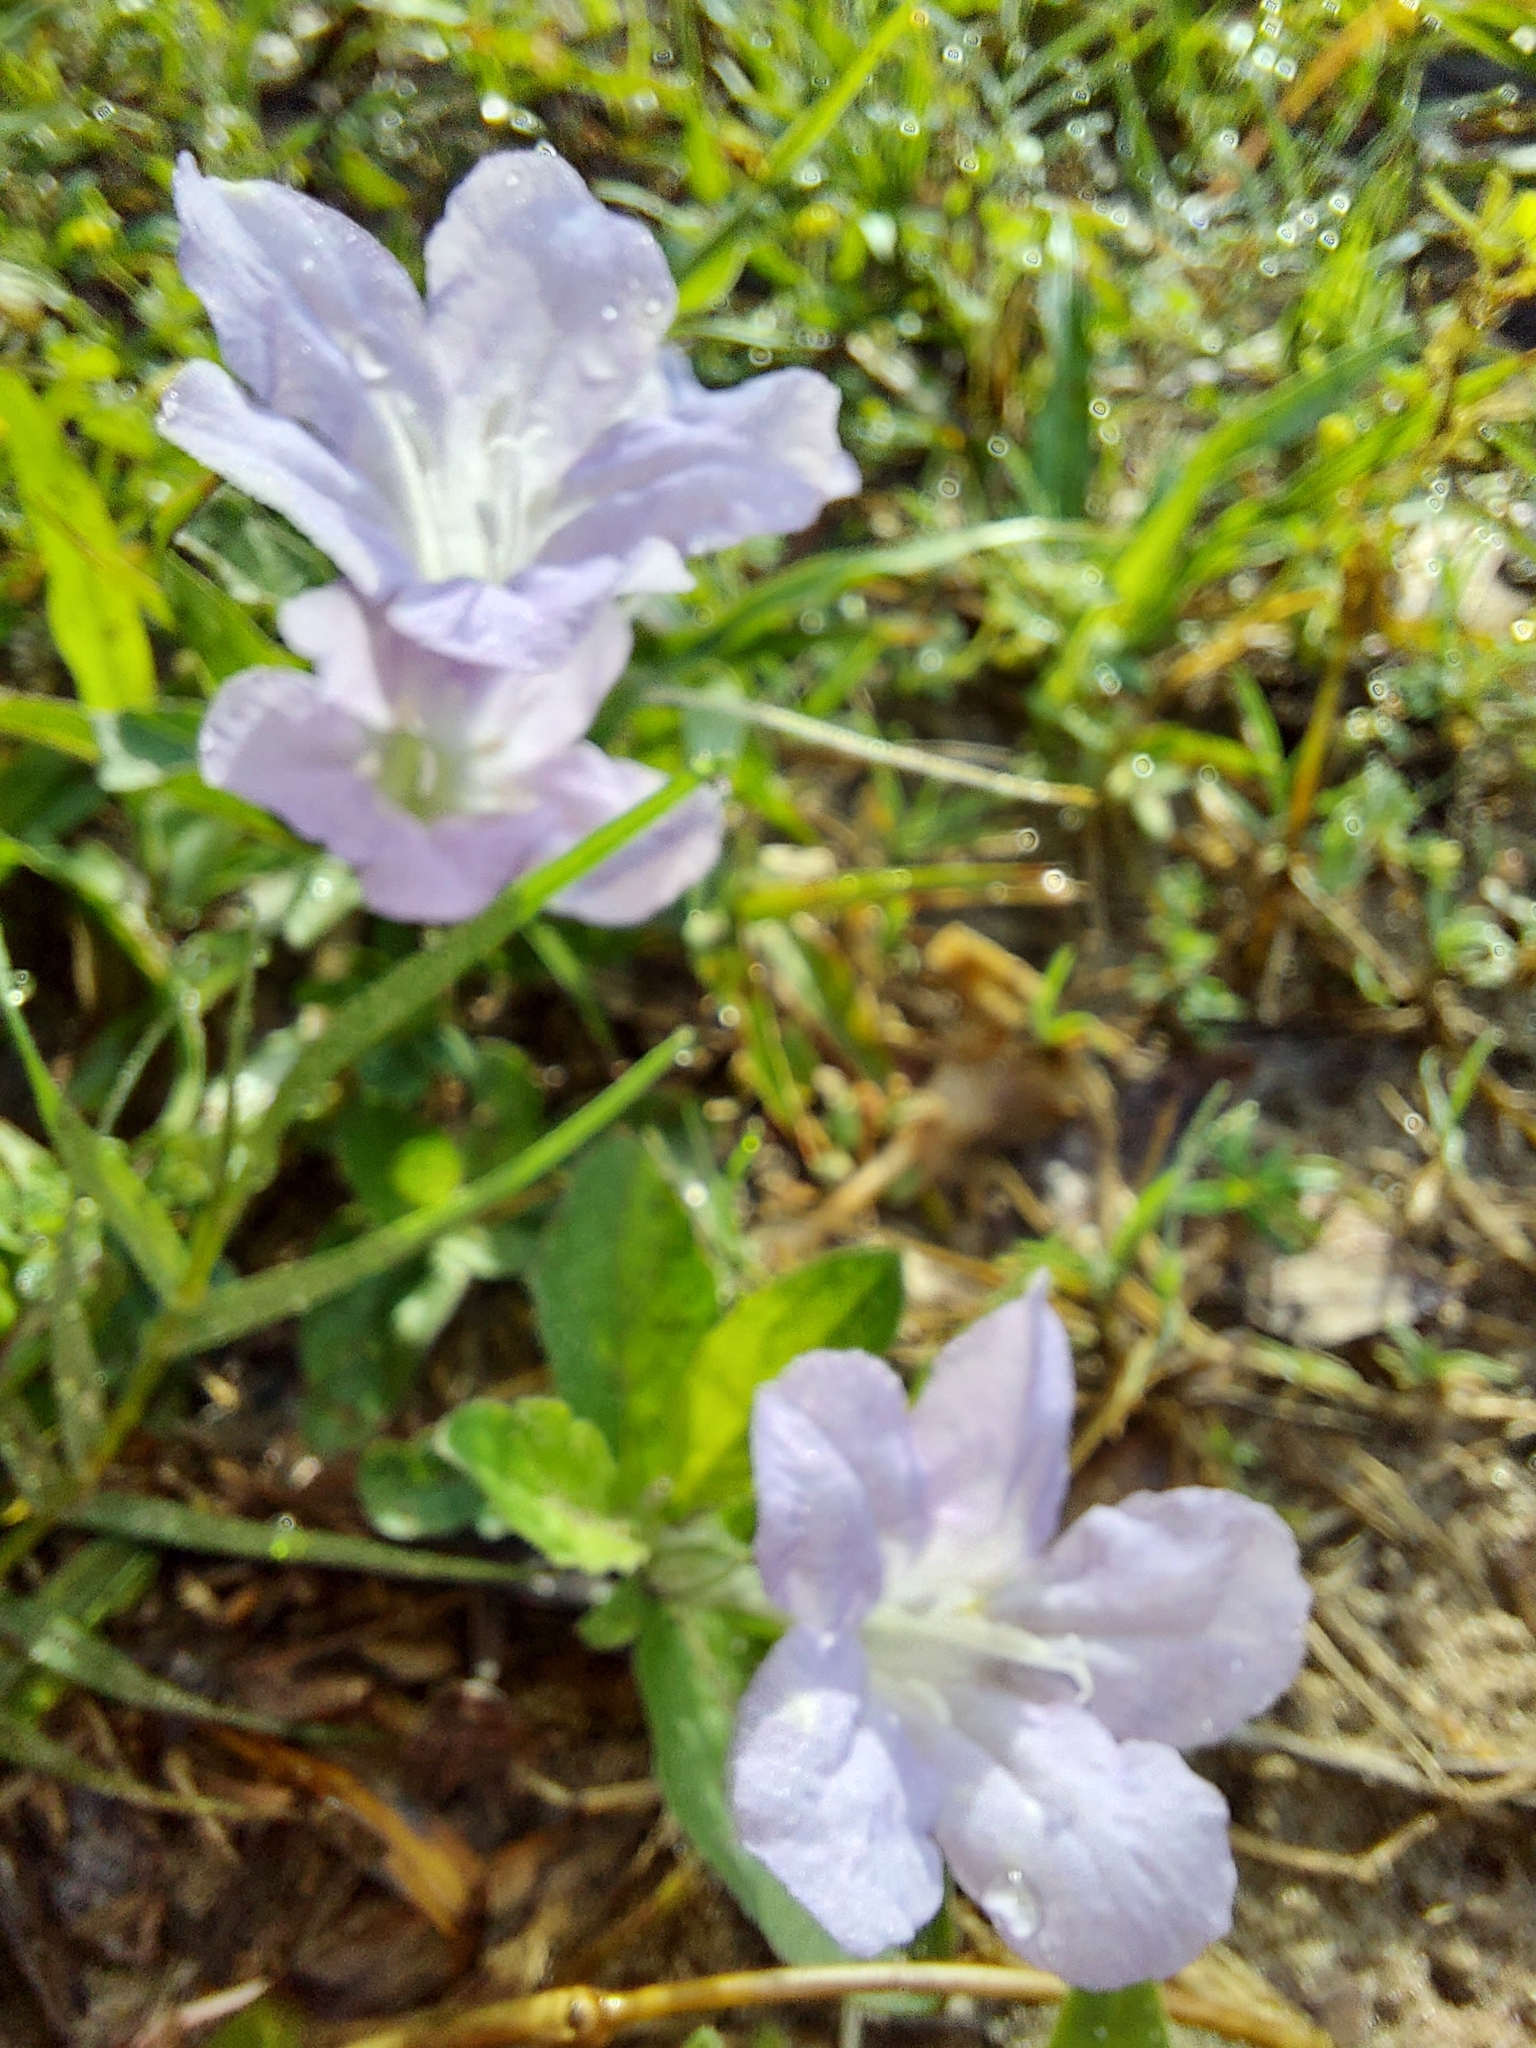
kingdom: Plantae
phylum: Tracheophyta
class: Magnoliopsida
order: Lamiales
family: Acanthaceae
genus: Ruellia
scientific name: Ruellia caroliniensis
